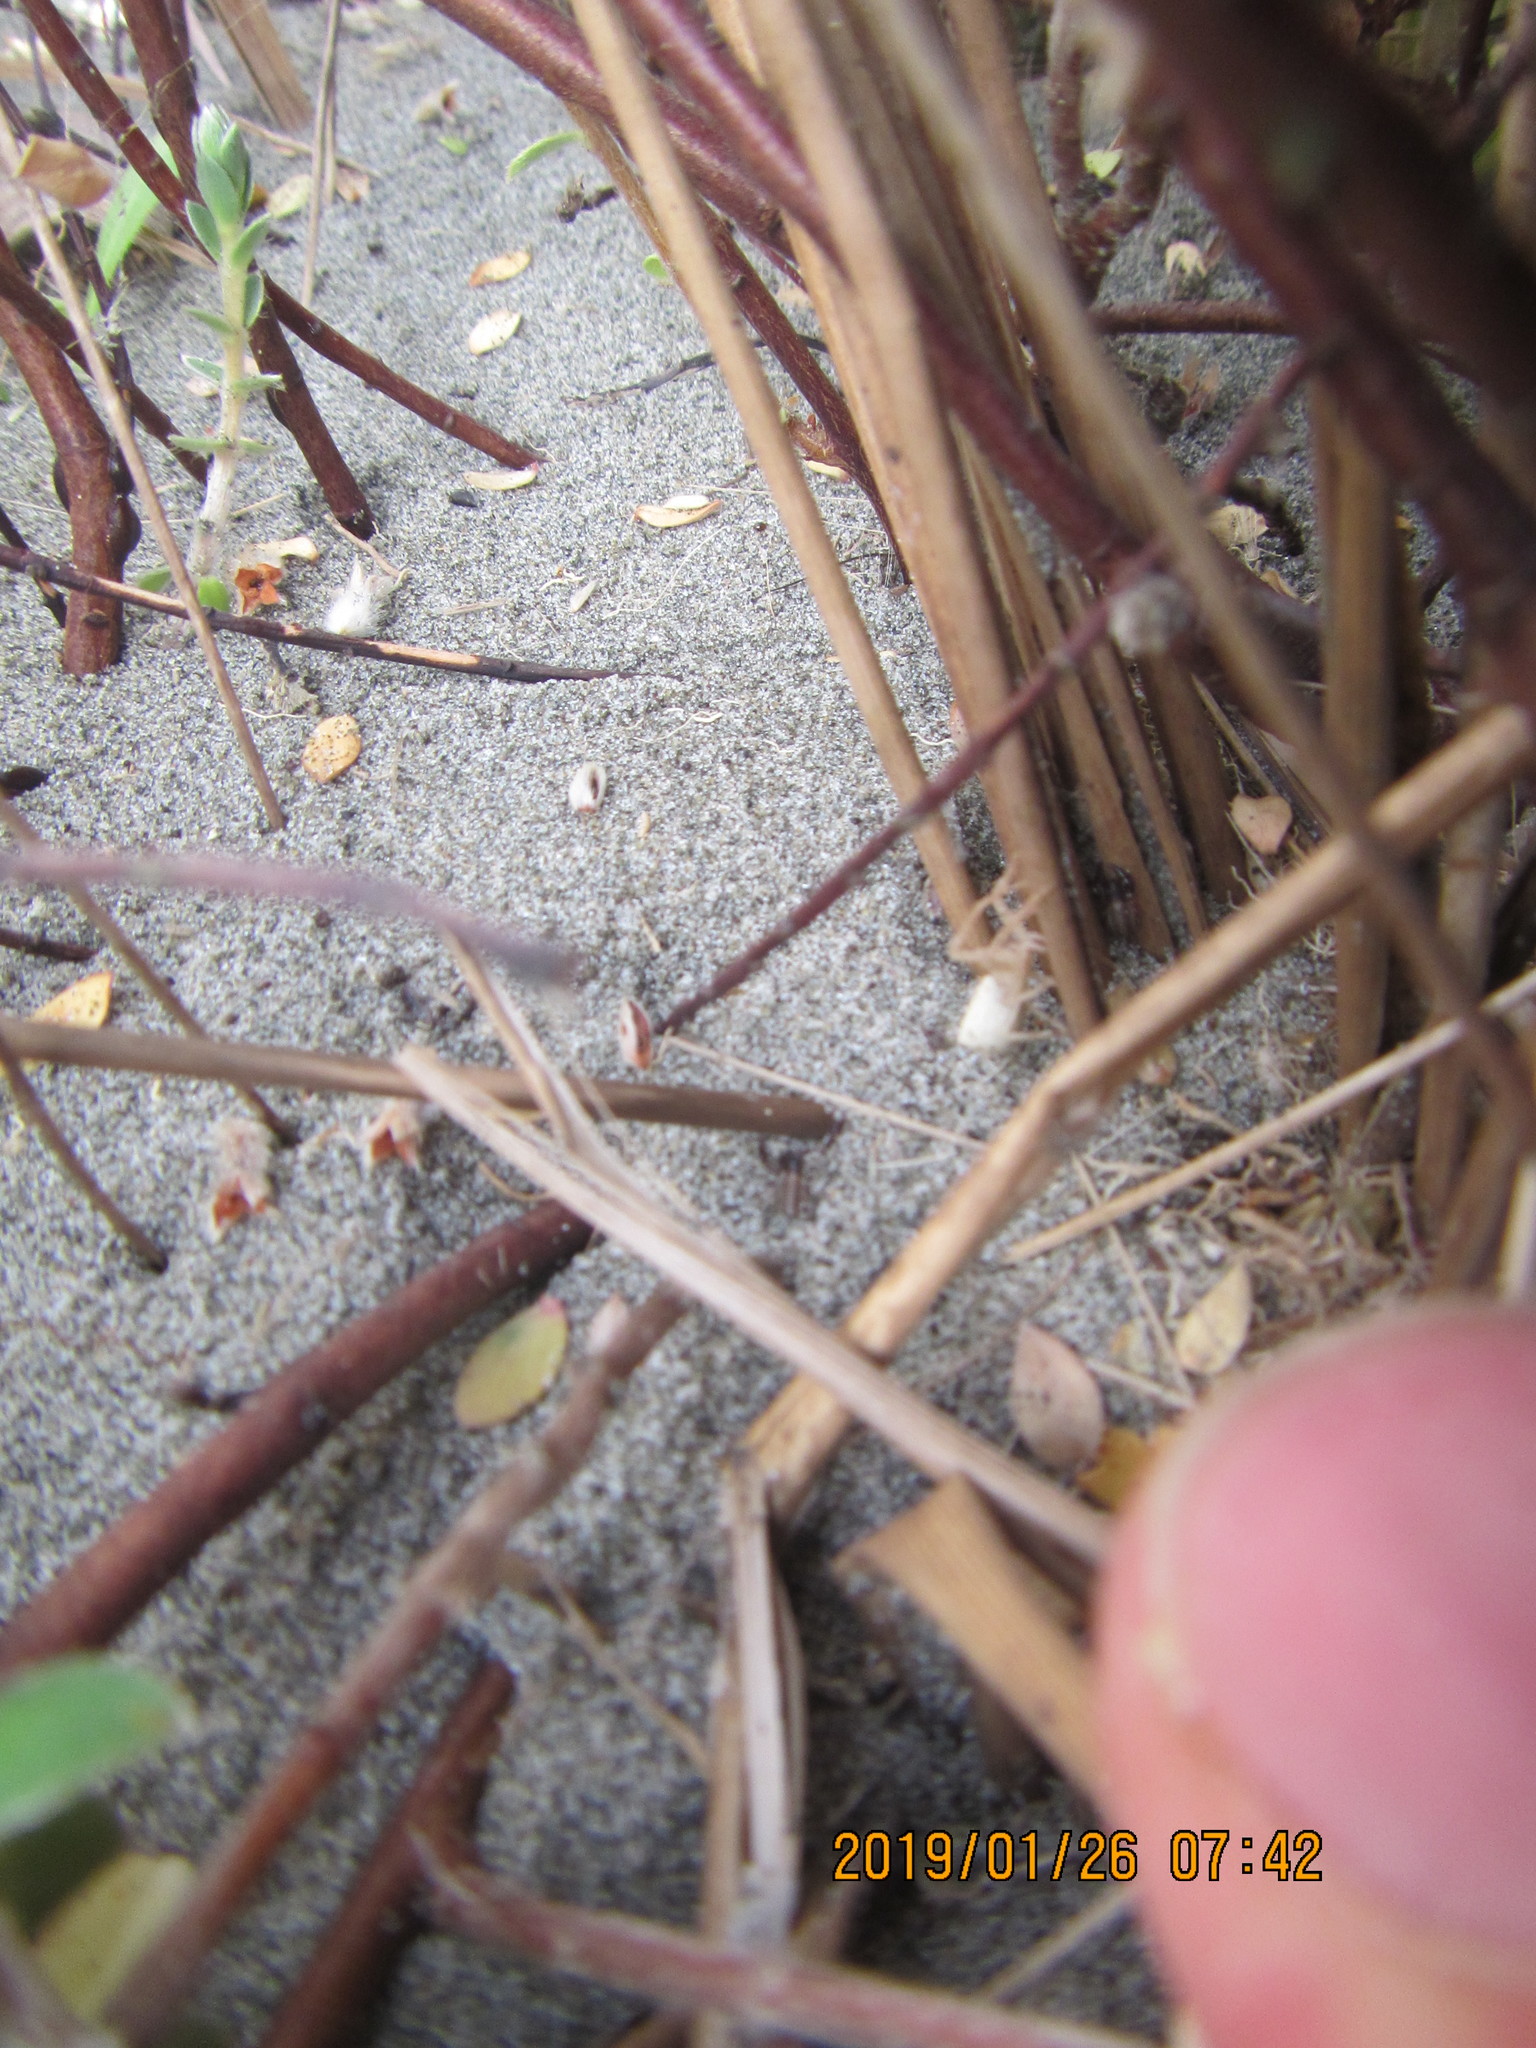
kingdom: Animalia
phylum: Arthropoda
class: Arachnida
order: Araneae
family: Thomisidae
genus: Sidymella
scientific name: Sidymella trapezia
